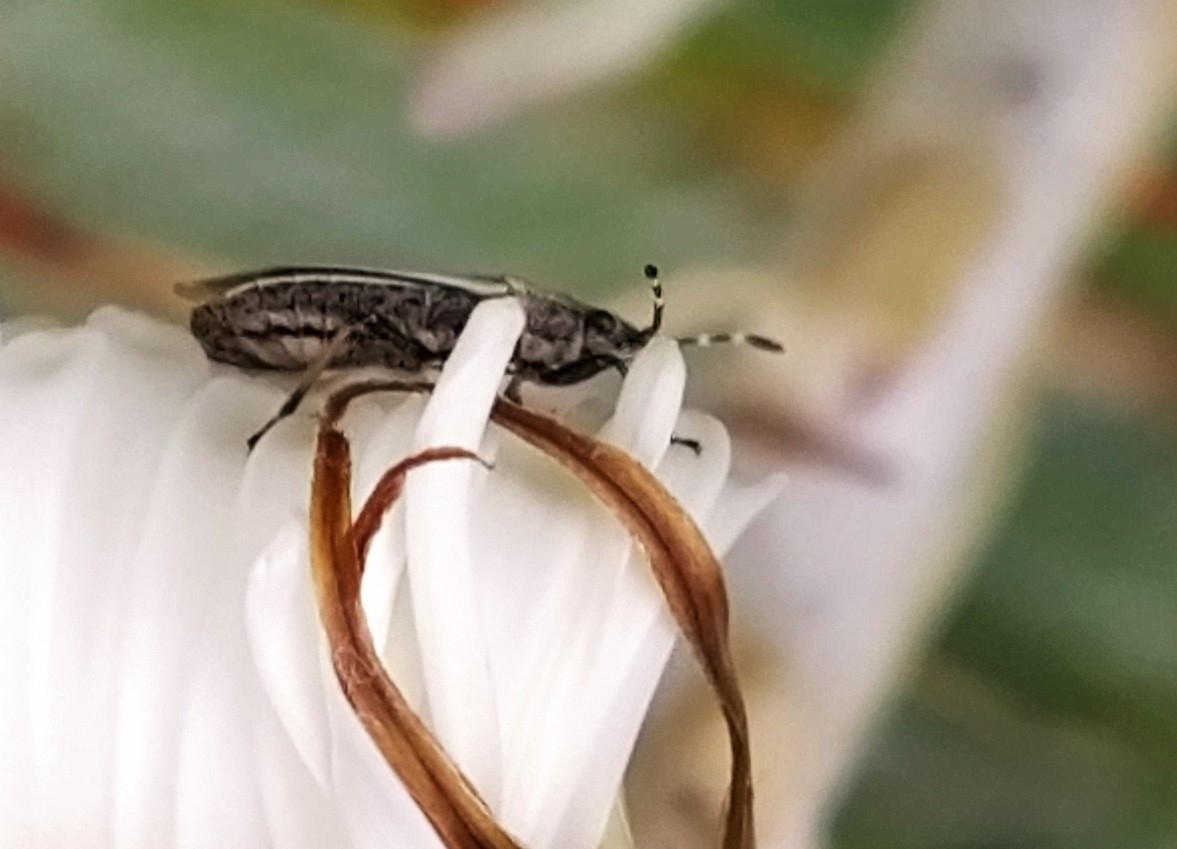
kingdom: Animalia
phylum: Arthropoda
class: Insecta
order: Hemiptera
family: Lygaeidae
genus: Rhypodes
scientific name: Rhypodes myersi
